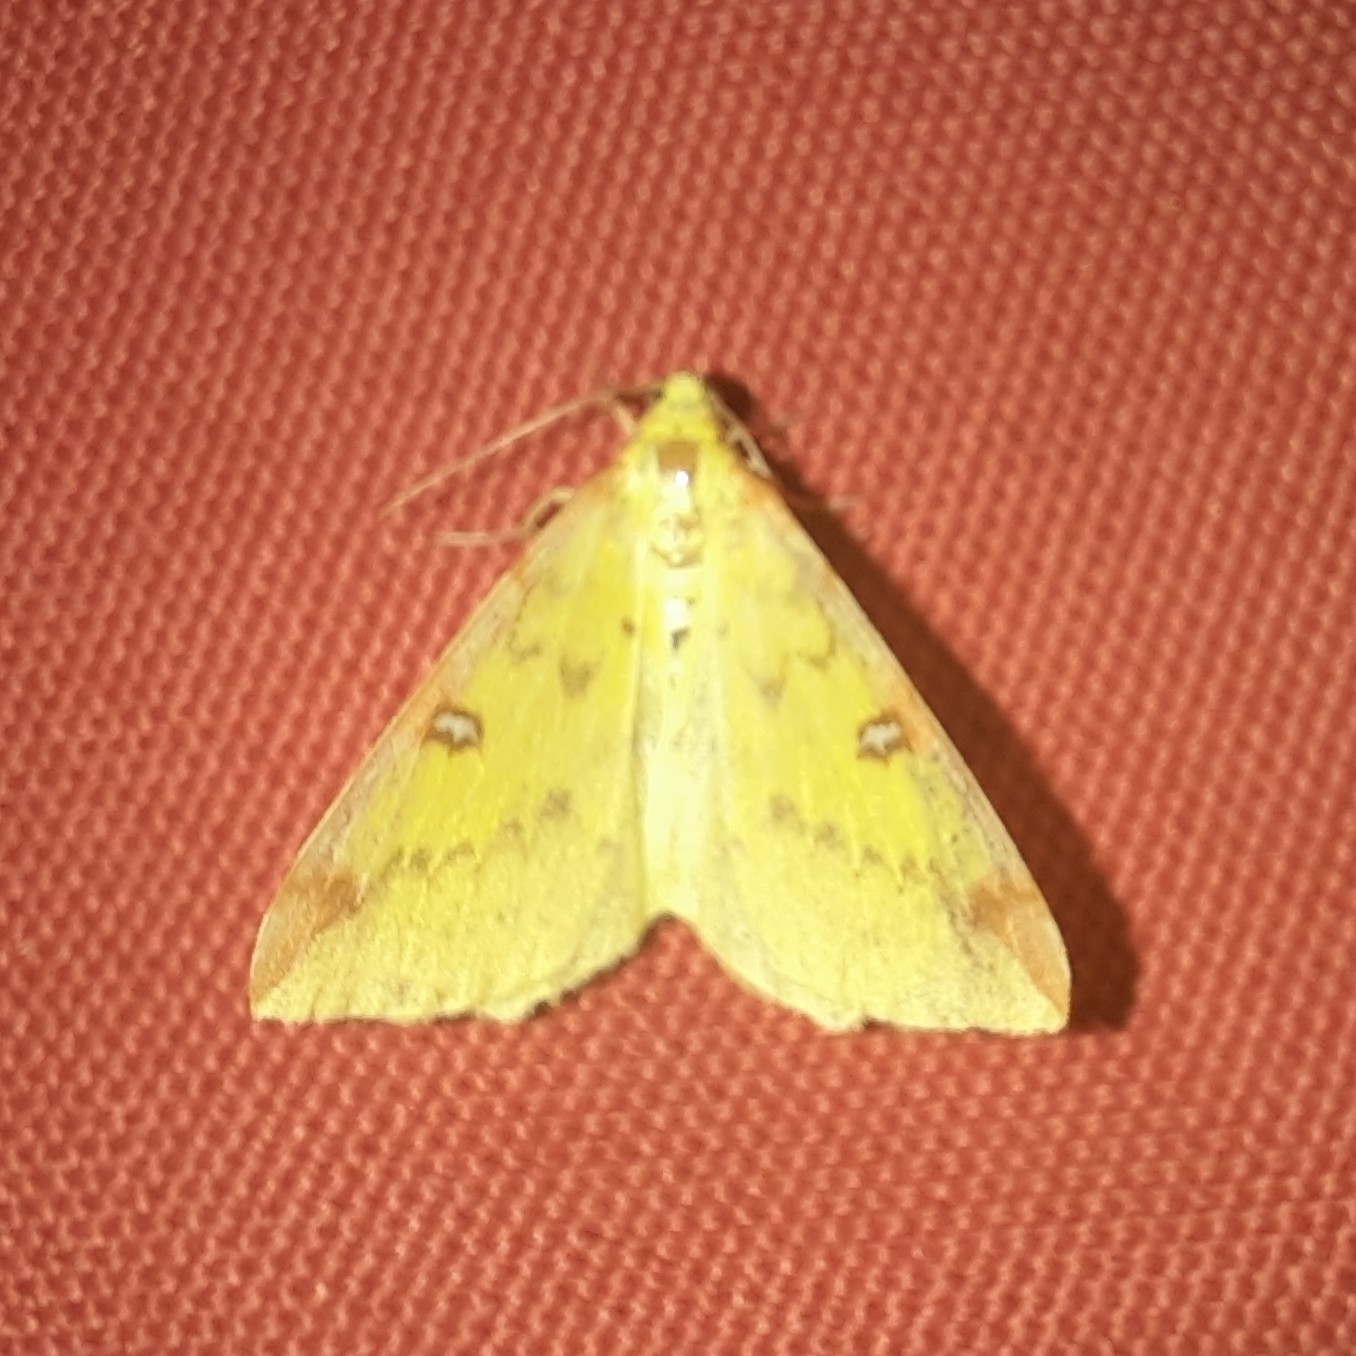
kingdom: Animalia
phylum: Arthropoda
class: Insecta
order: Lepidoptera
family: Geometridae
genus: Opisthograptis
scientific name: Opisthograptis luteolata
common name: Brimstone moth
